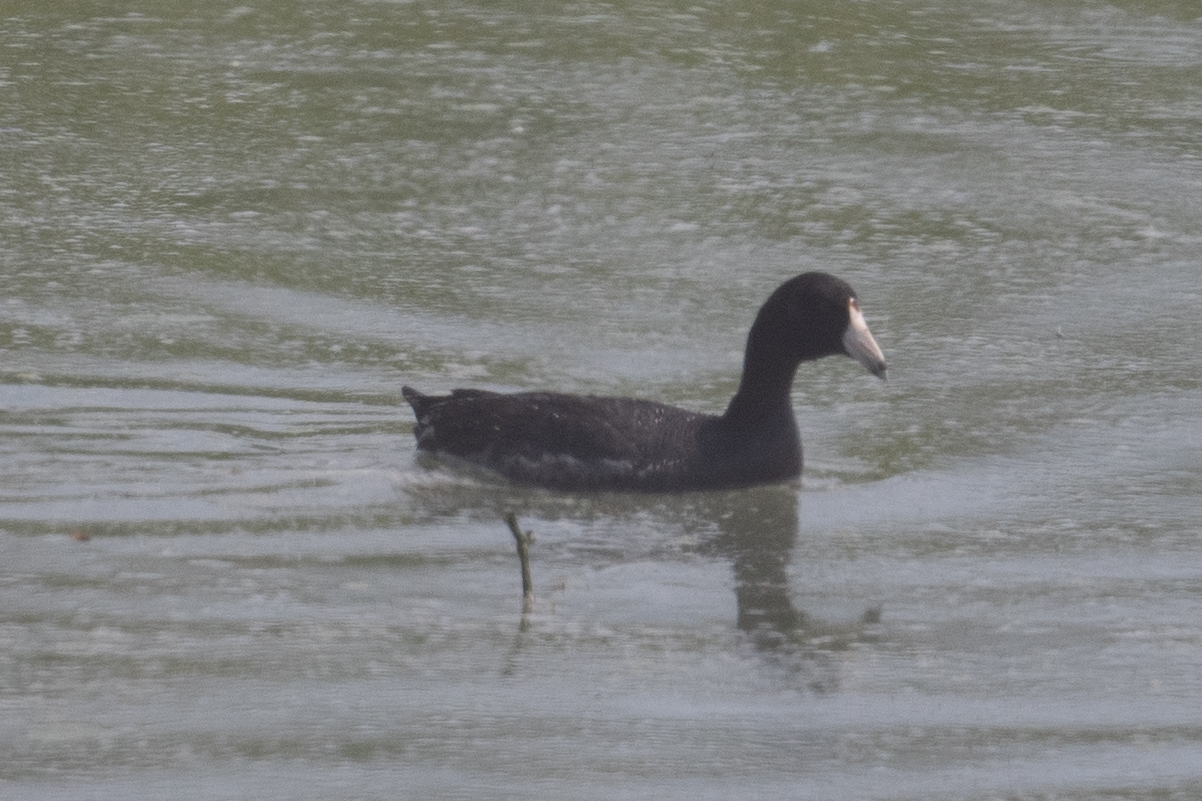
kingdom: Animalia
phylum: Chordata
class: Aves
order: Gruiformes
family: Rallidae
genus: Fulica
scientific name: Fulica americana
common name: American coot
